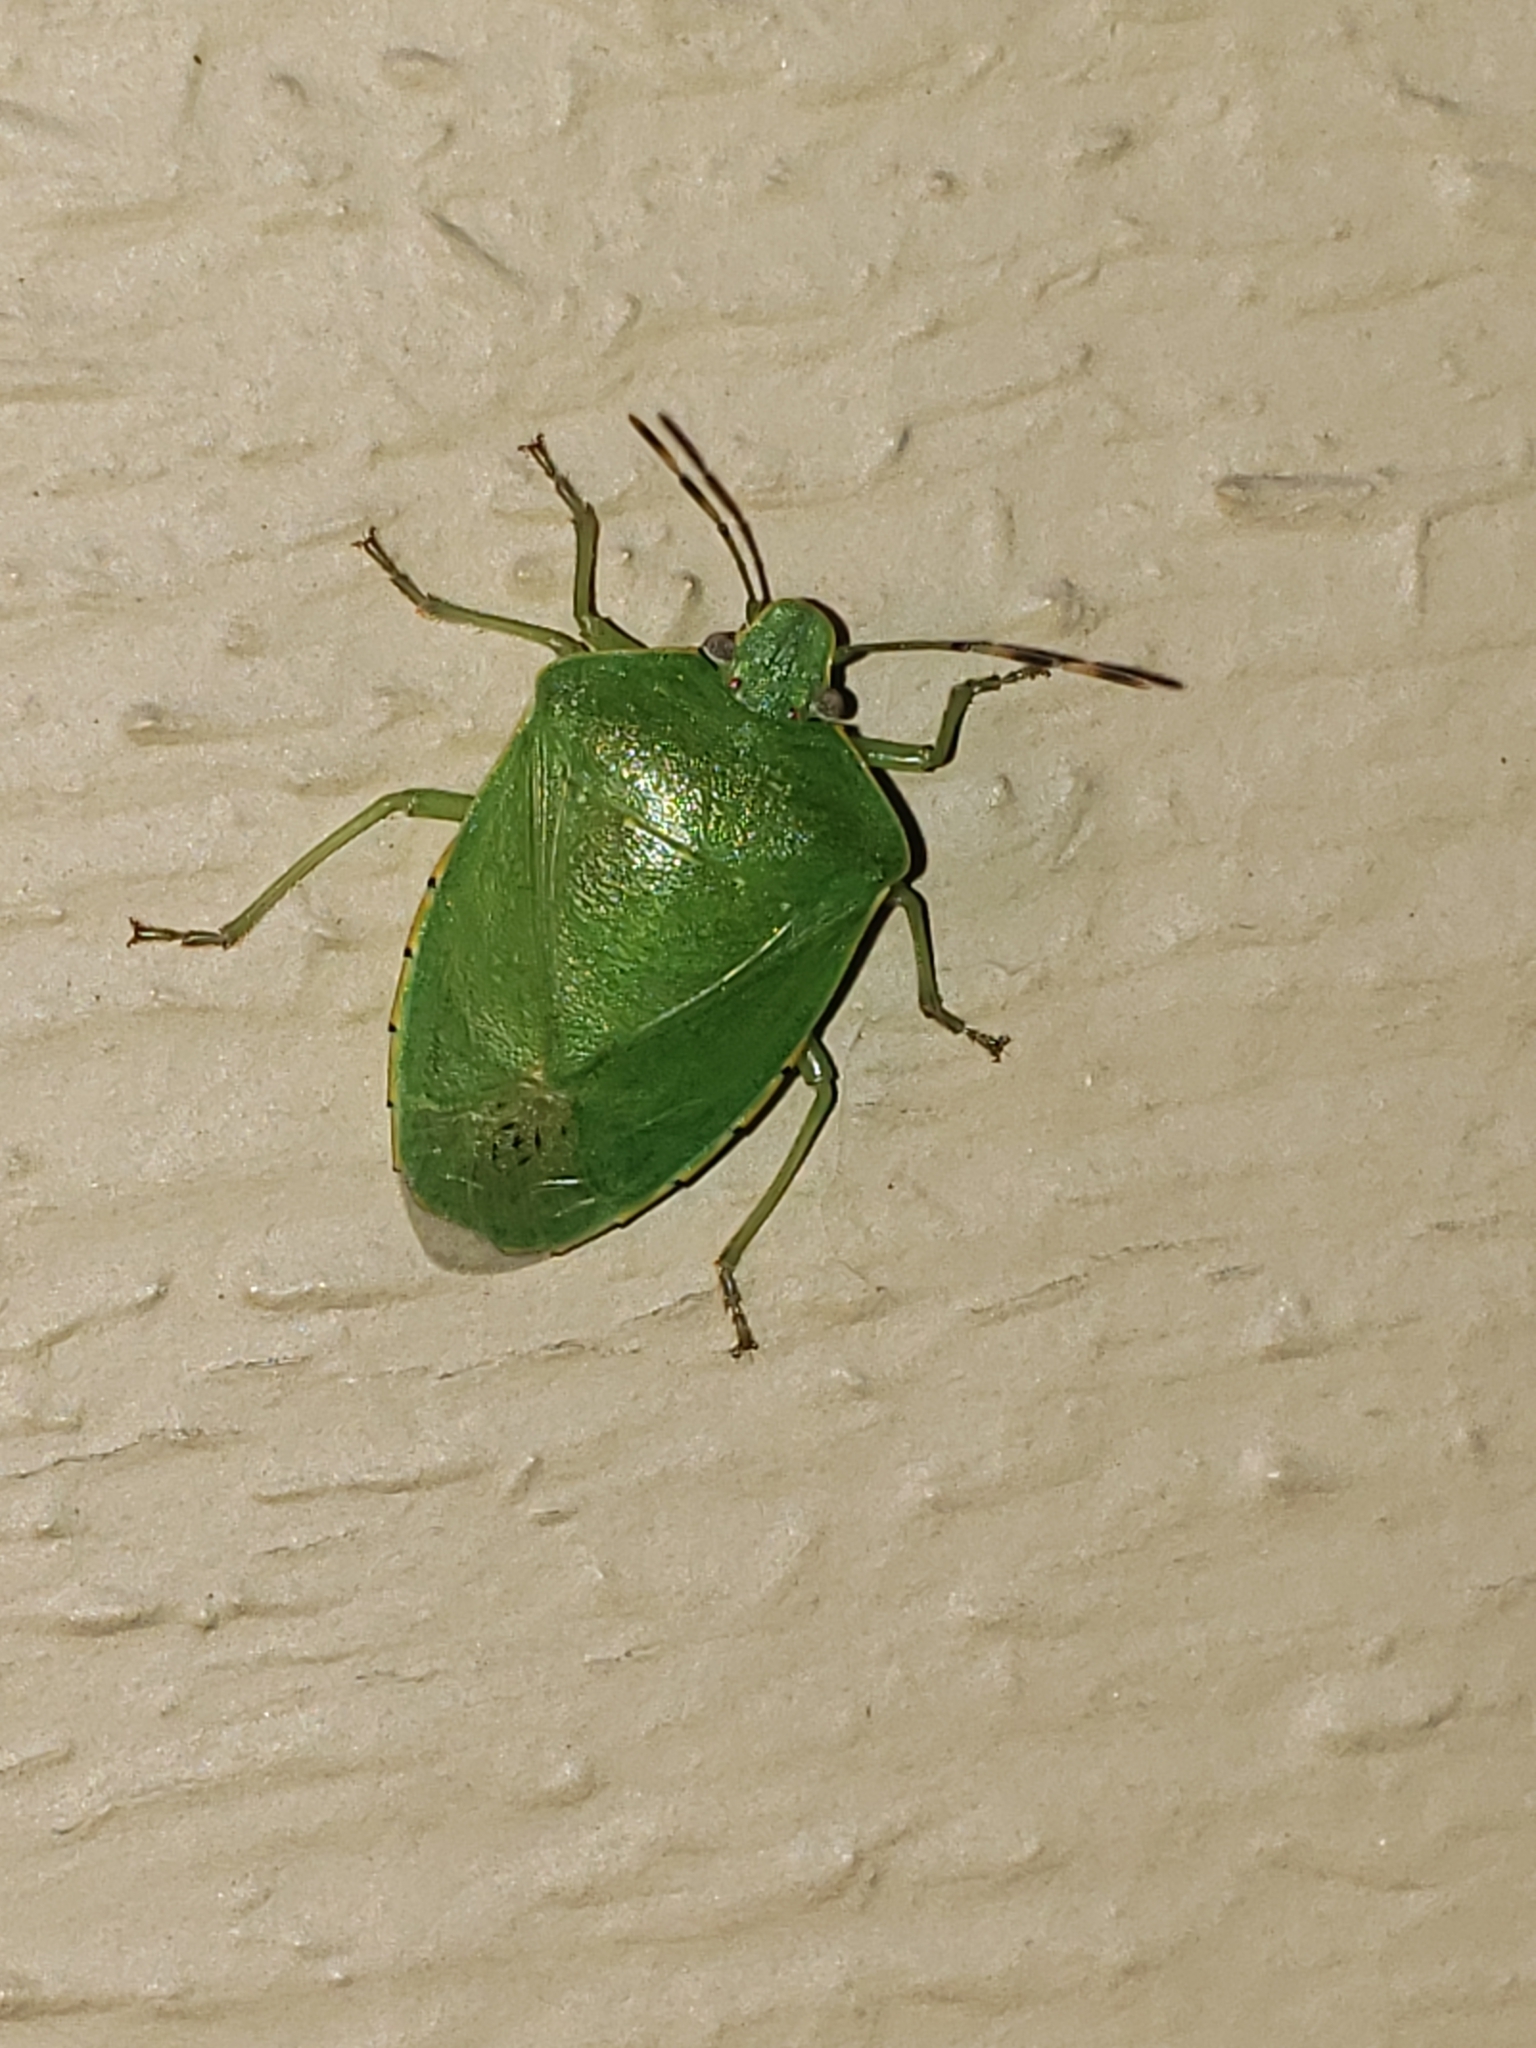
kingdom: Animalia
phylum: Arthropoda
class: Insecta
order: Hemiptera
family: Pentatomidae
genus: Chinavia
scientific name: Chinavia hilaris
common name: Green stink bug
